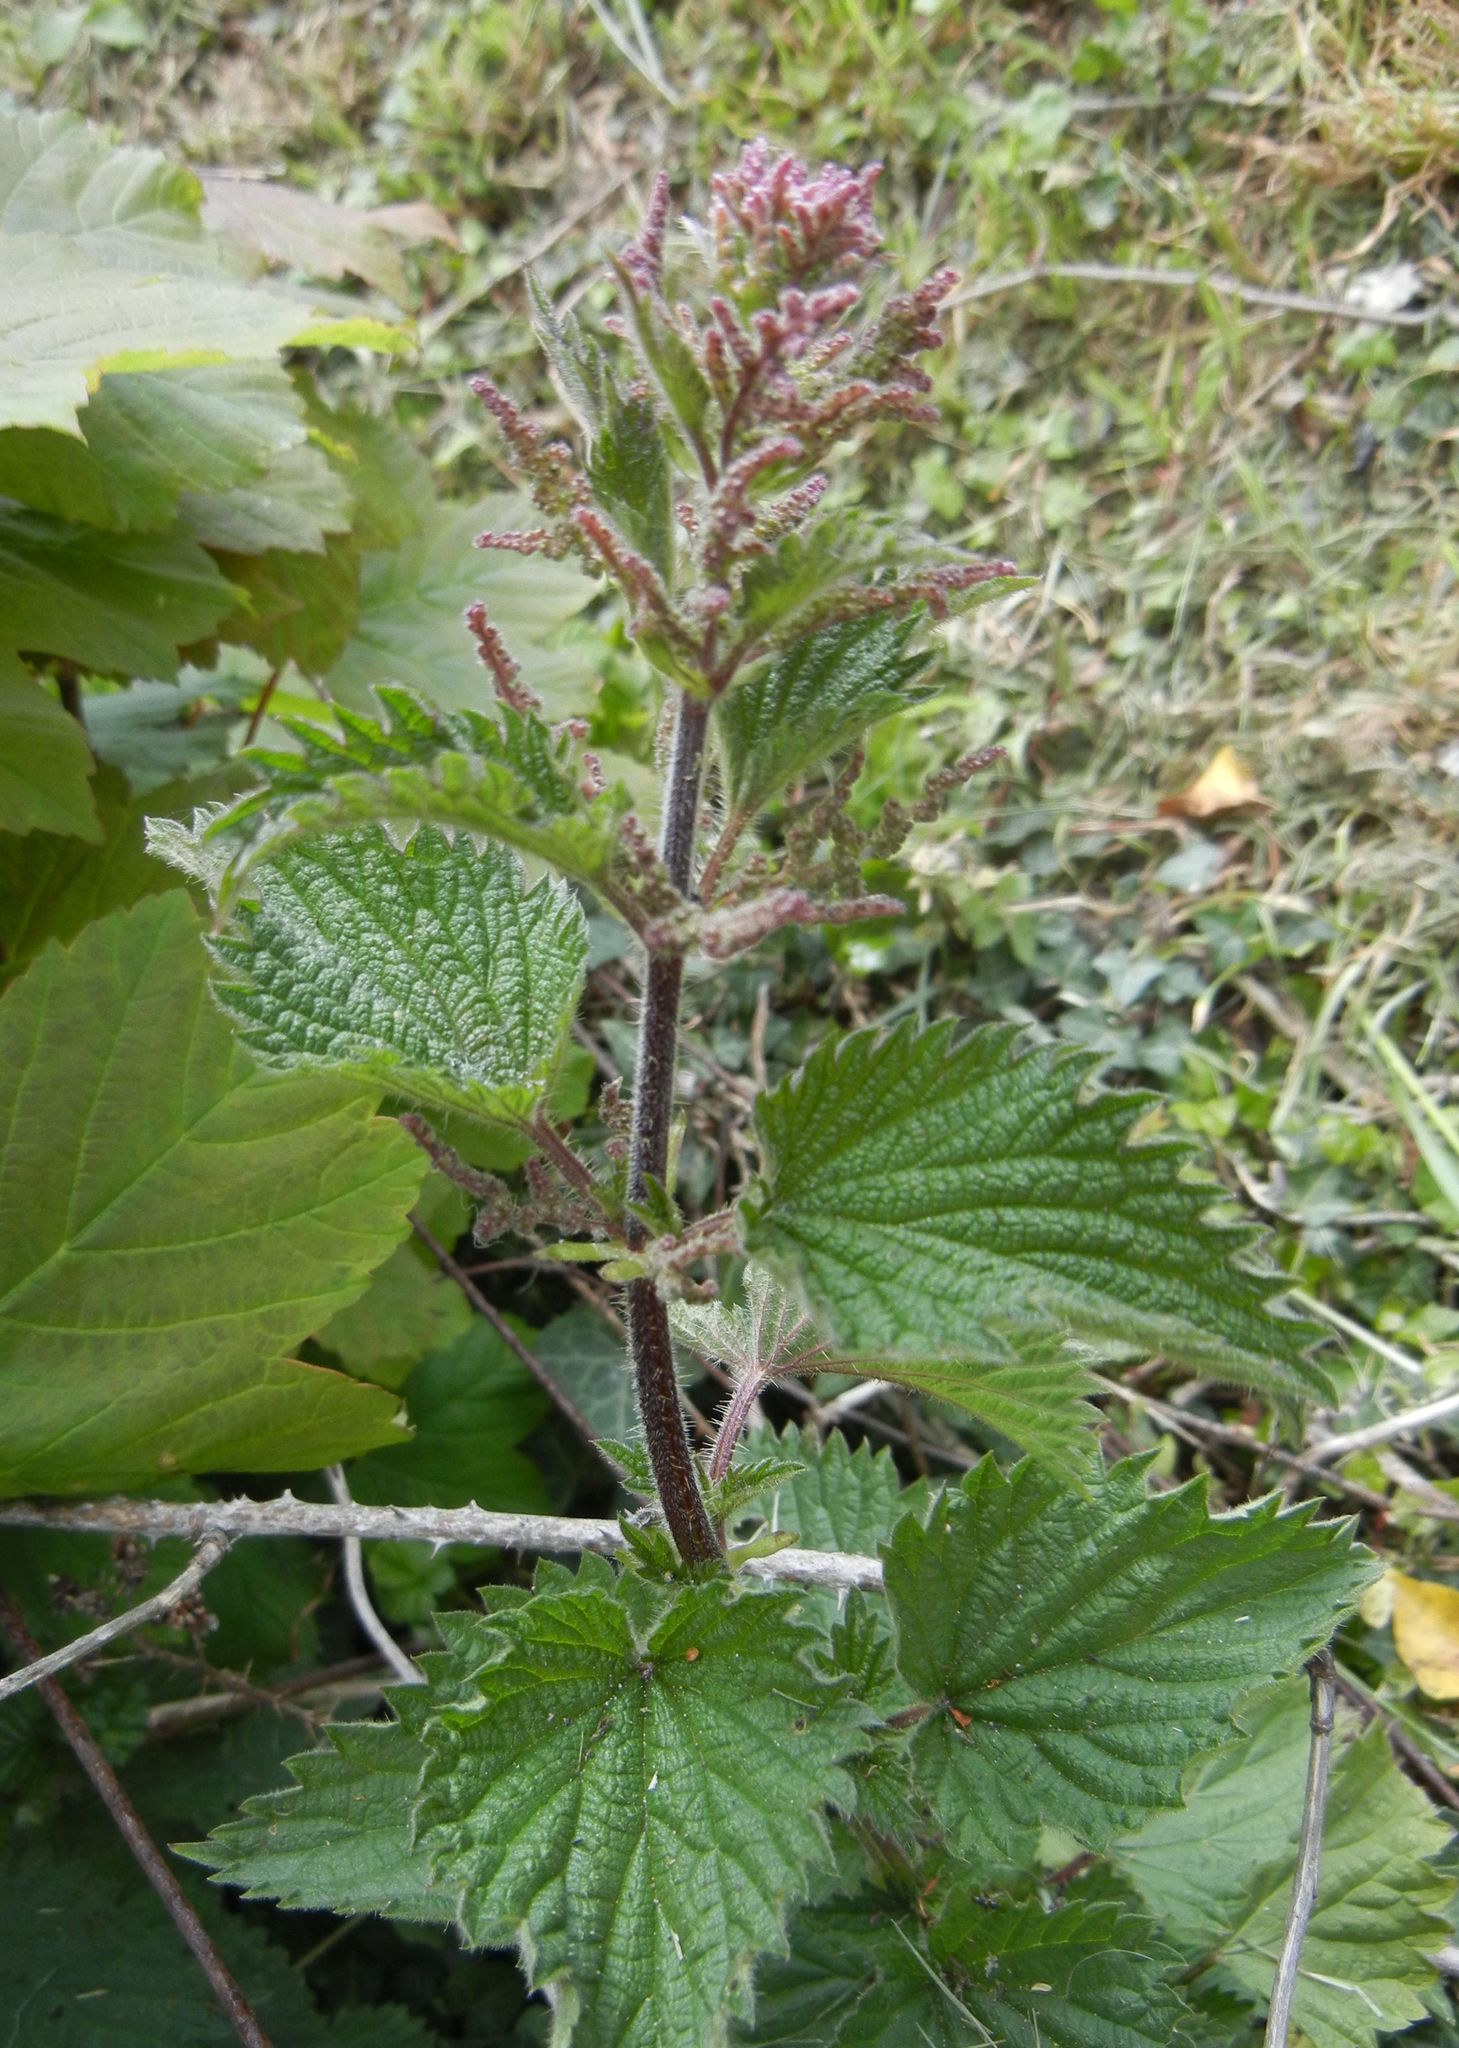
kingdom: Plantae
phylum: Tracheophyta
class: Magnoliopsida
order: Rosales
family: Urticaceae
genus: Urtica
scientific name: Urtica dioica
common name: Common nettle
